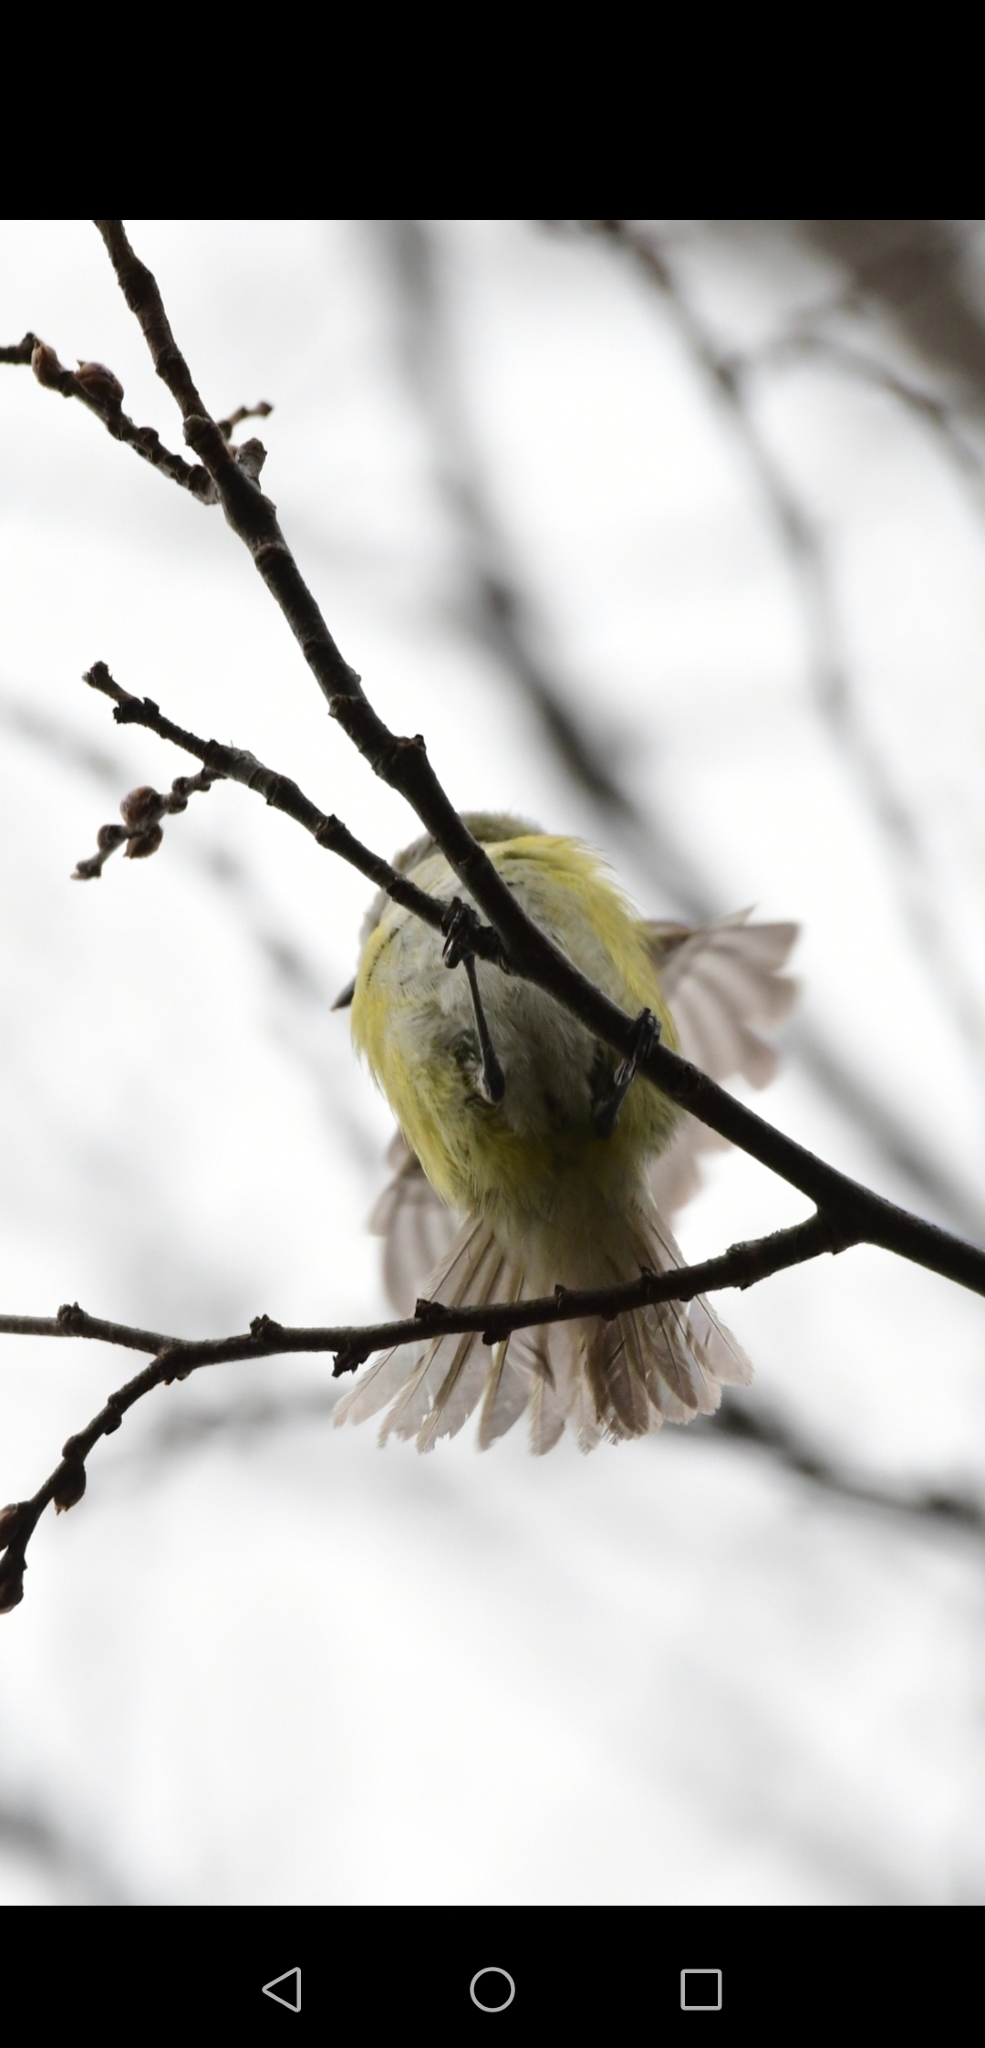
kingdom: Animalia
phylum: Chordata
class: Aves
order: Passeriformes
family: Vireonidae
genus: Vireo
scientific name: Vireo griseus
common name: White-eyed vireo
